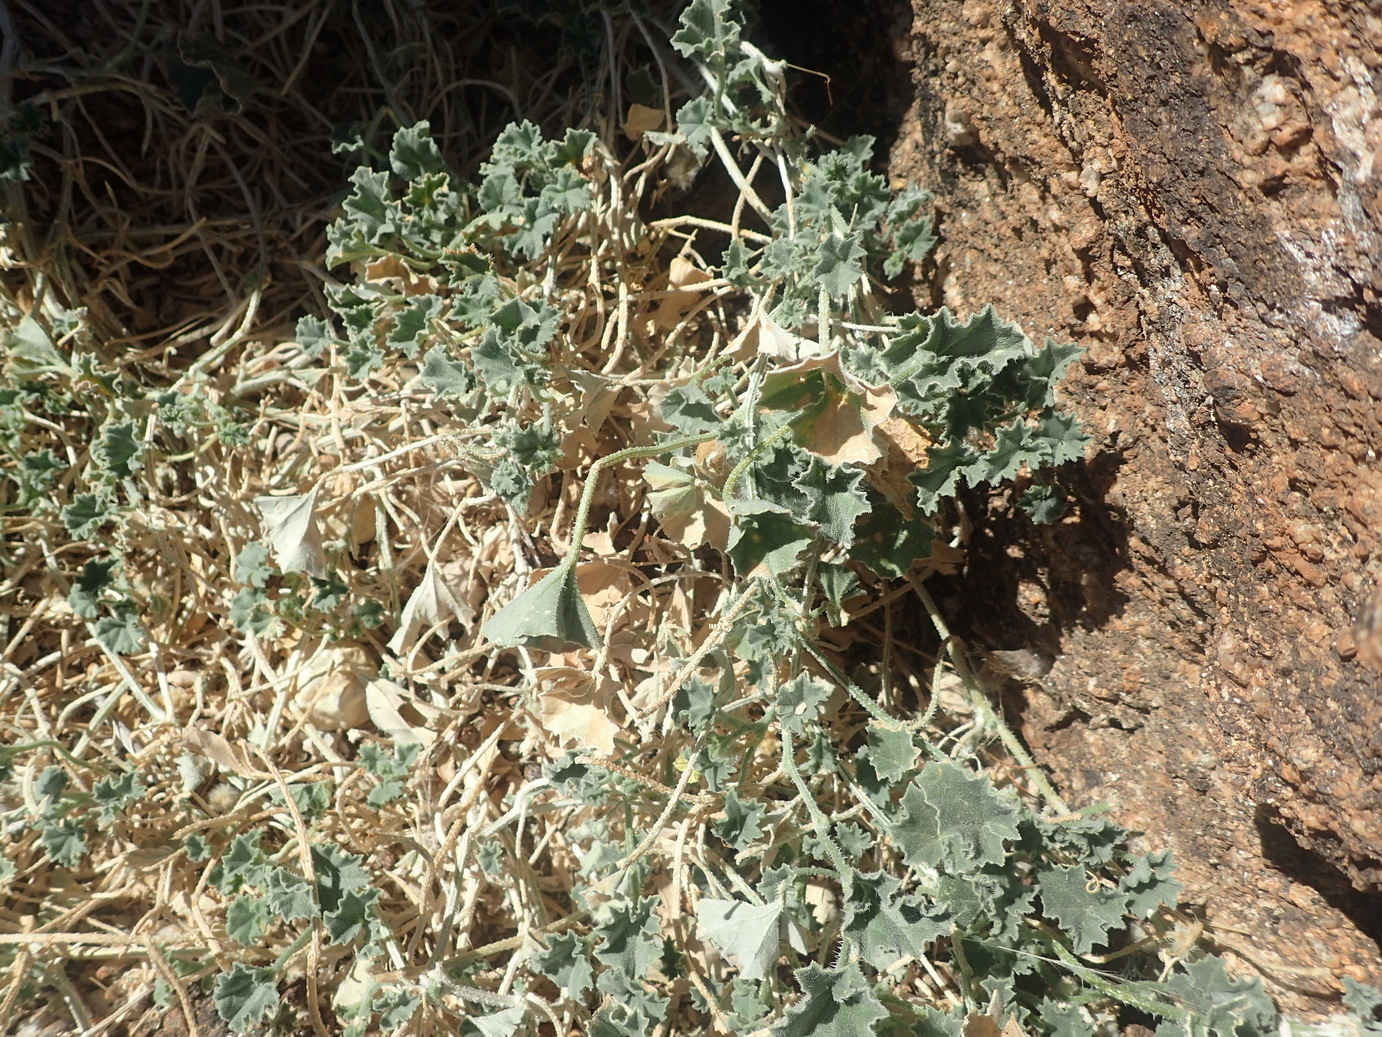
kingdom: Plantae
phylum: Tracheophyta
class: Magnoliopsida
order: Cucurbitales
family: Cucurbitaceae
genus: Cucumis
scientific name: Cucumis sagittatus
